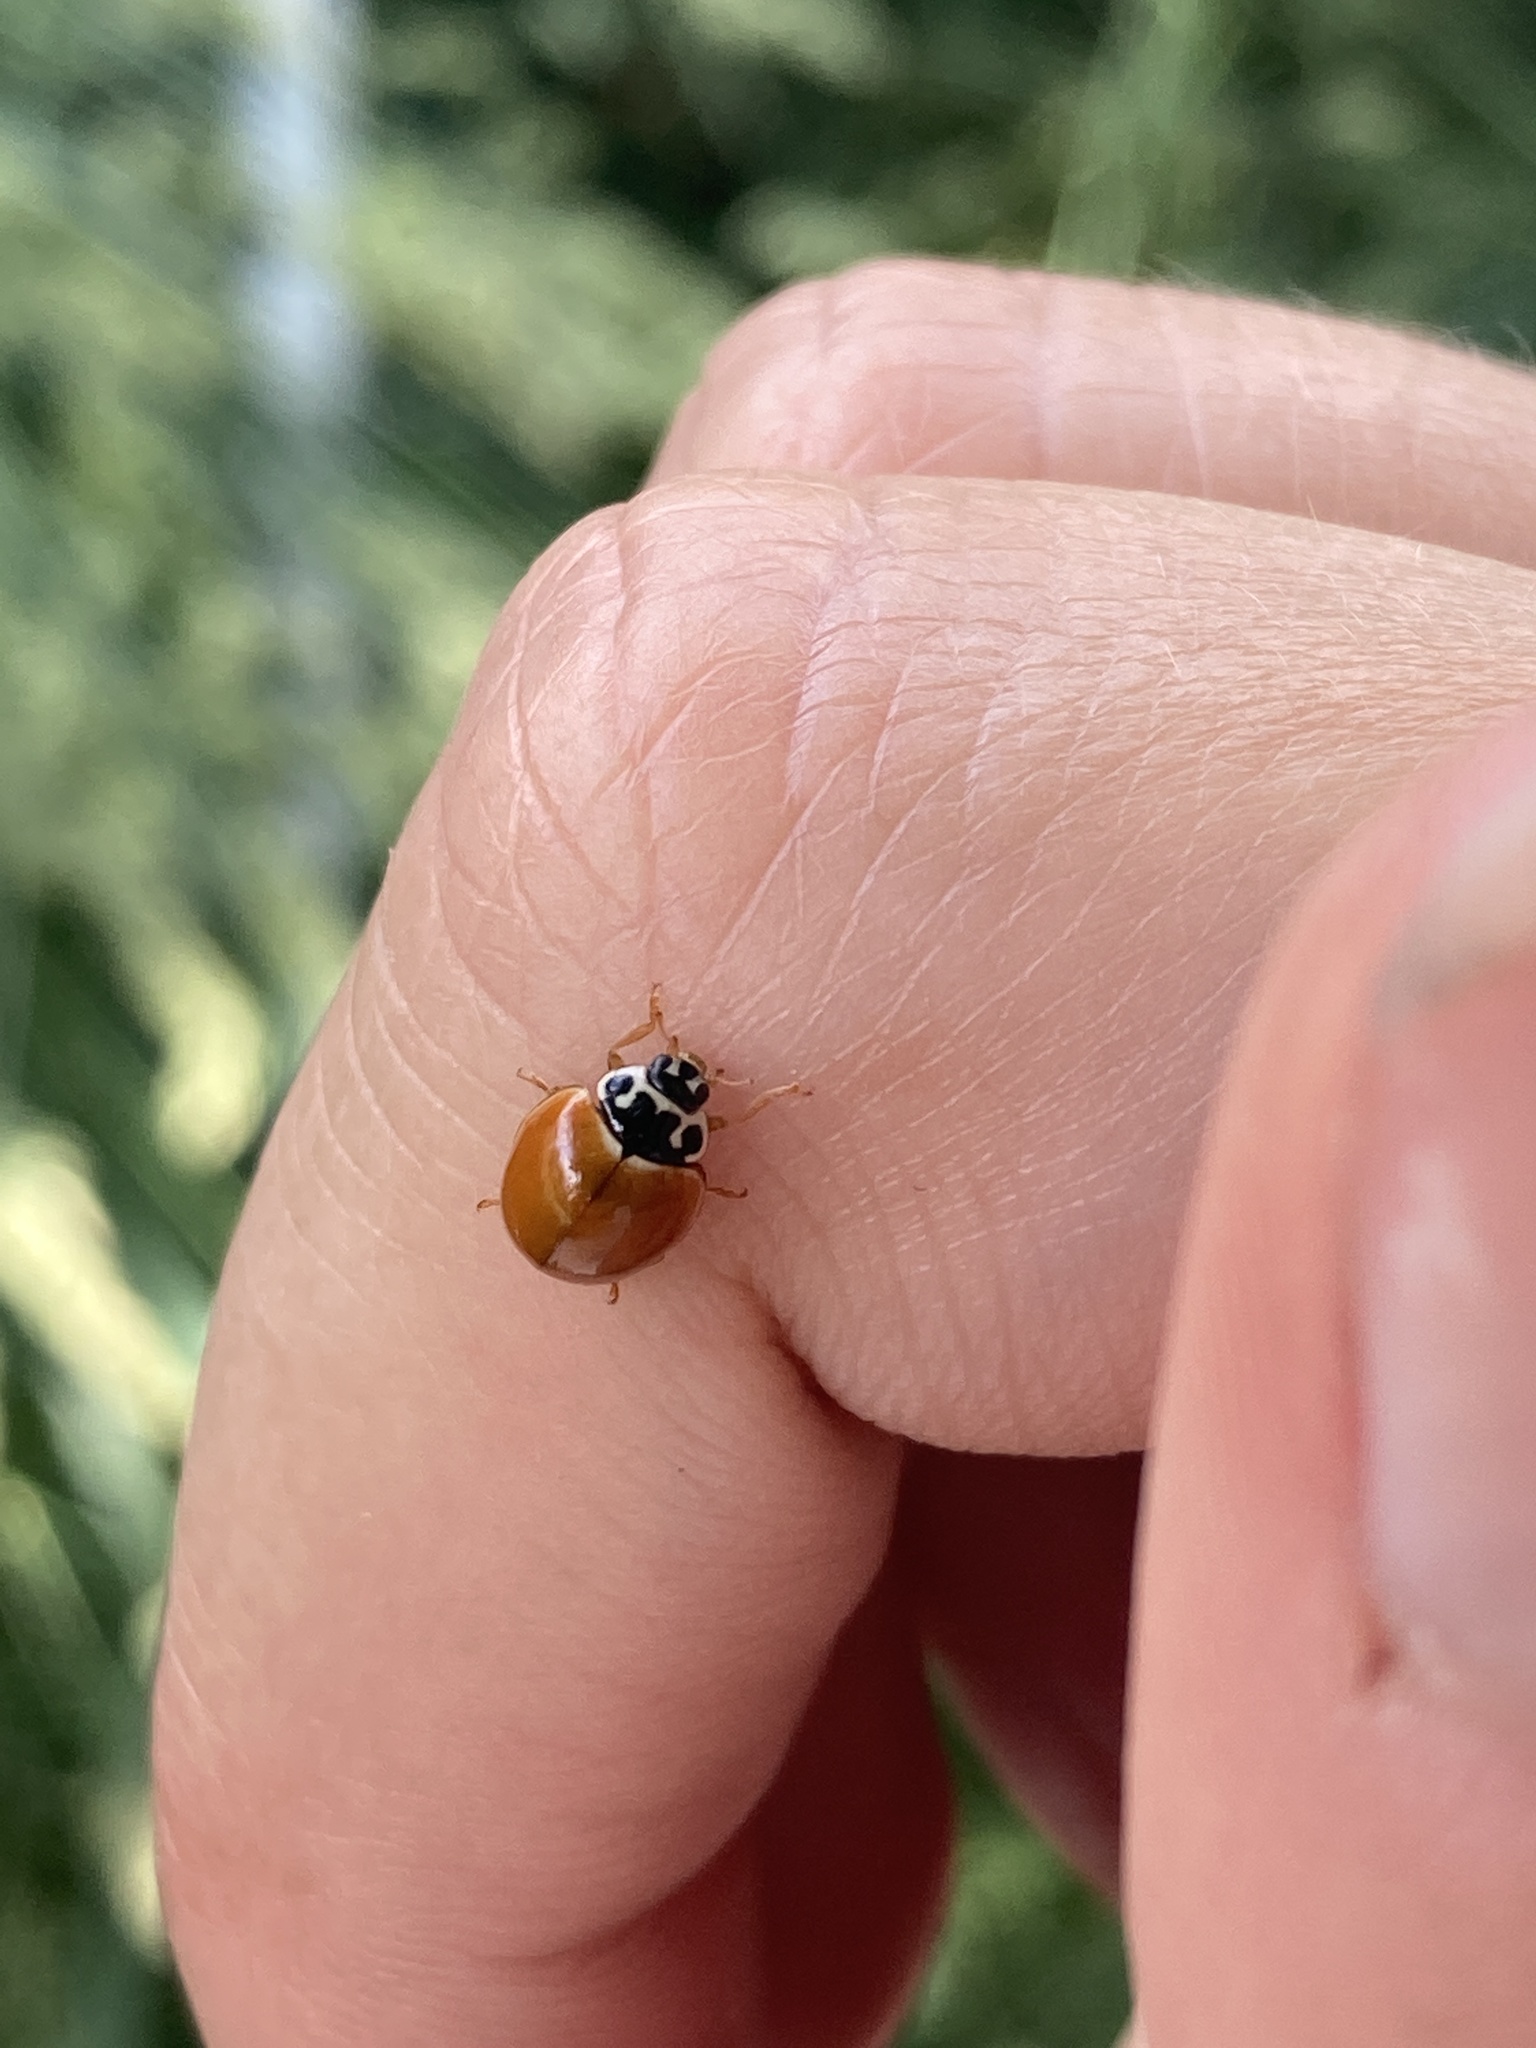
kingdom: Animalia
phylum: Arthropoda
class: Insecta
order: Coleoptera
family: Coccinellidae
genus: Cycloneda
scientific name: Cycloneda munda
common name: Polished lady beetle
